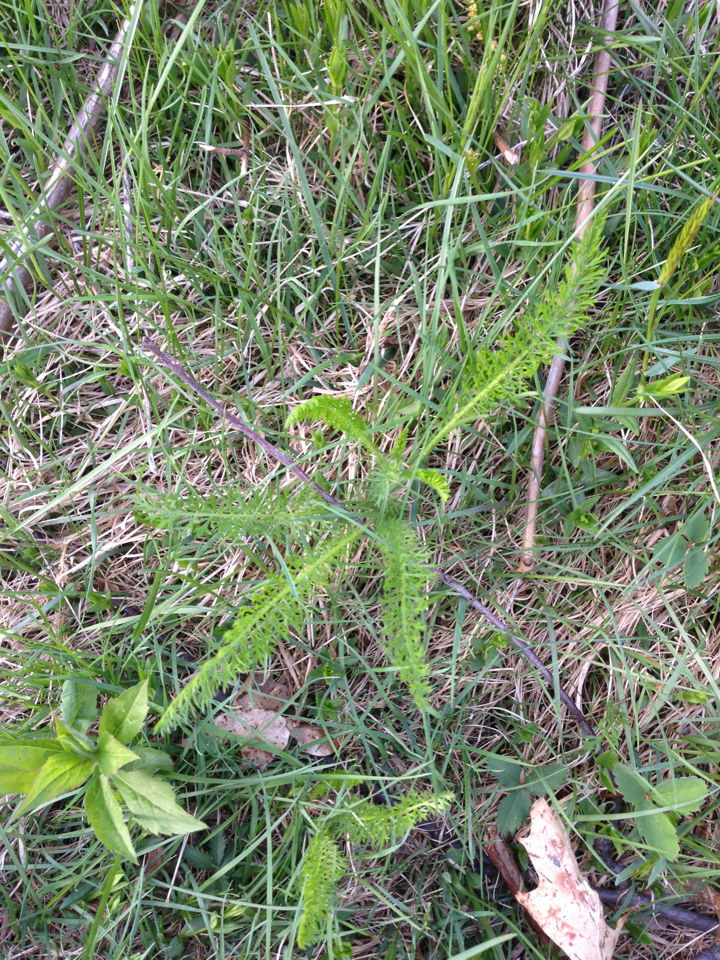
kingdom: Plantae
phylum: Tracheophyta
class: Magnoliopsida
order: Asterales
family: Asteraceae
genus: Achillea
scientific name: Achillea millefolium
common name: Yarrow
